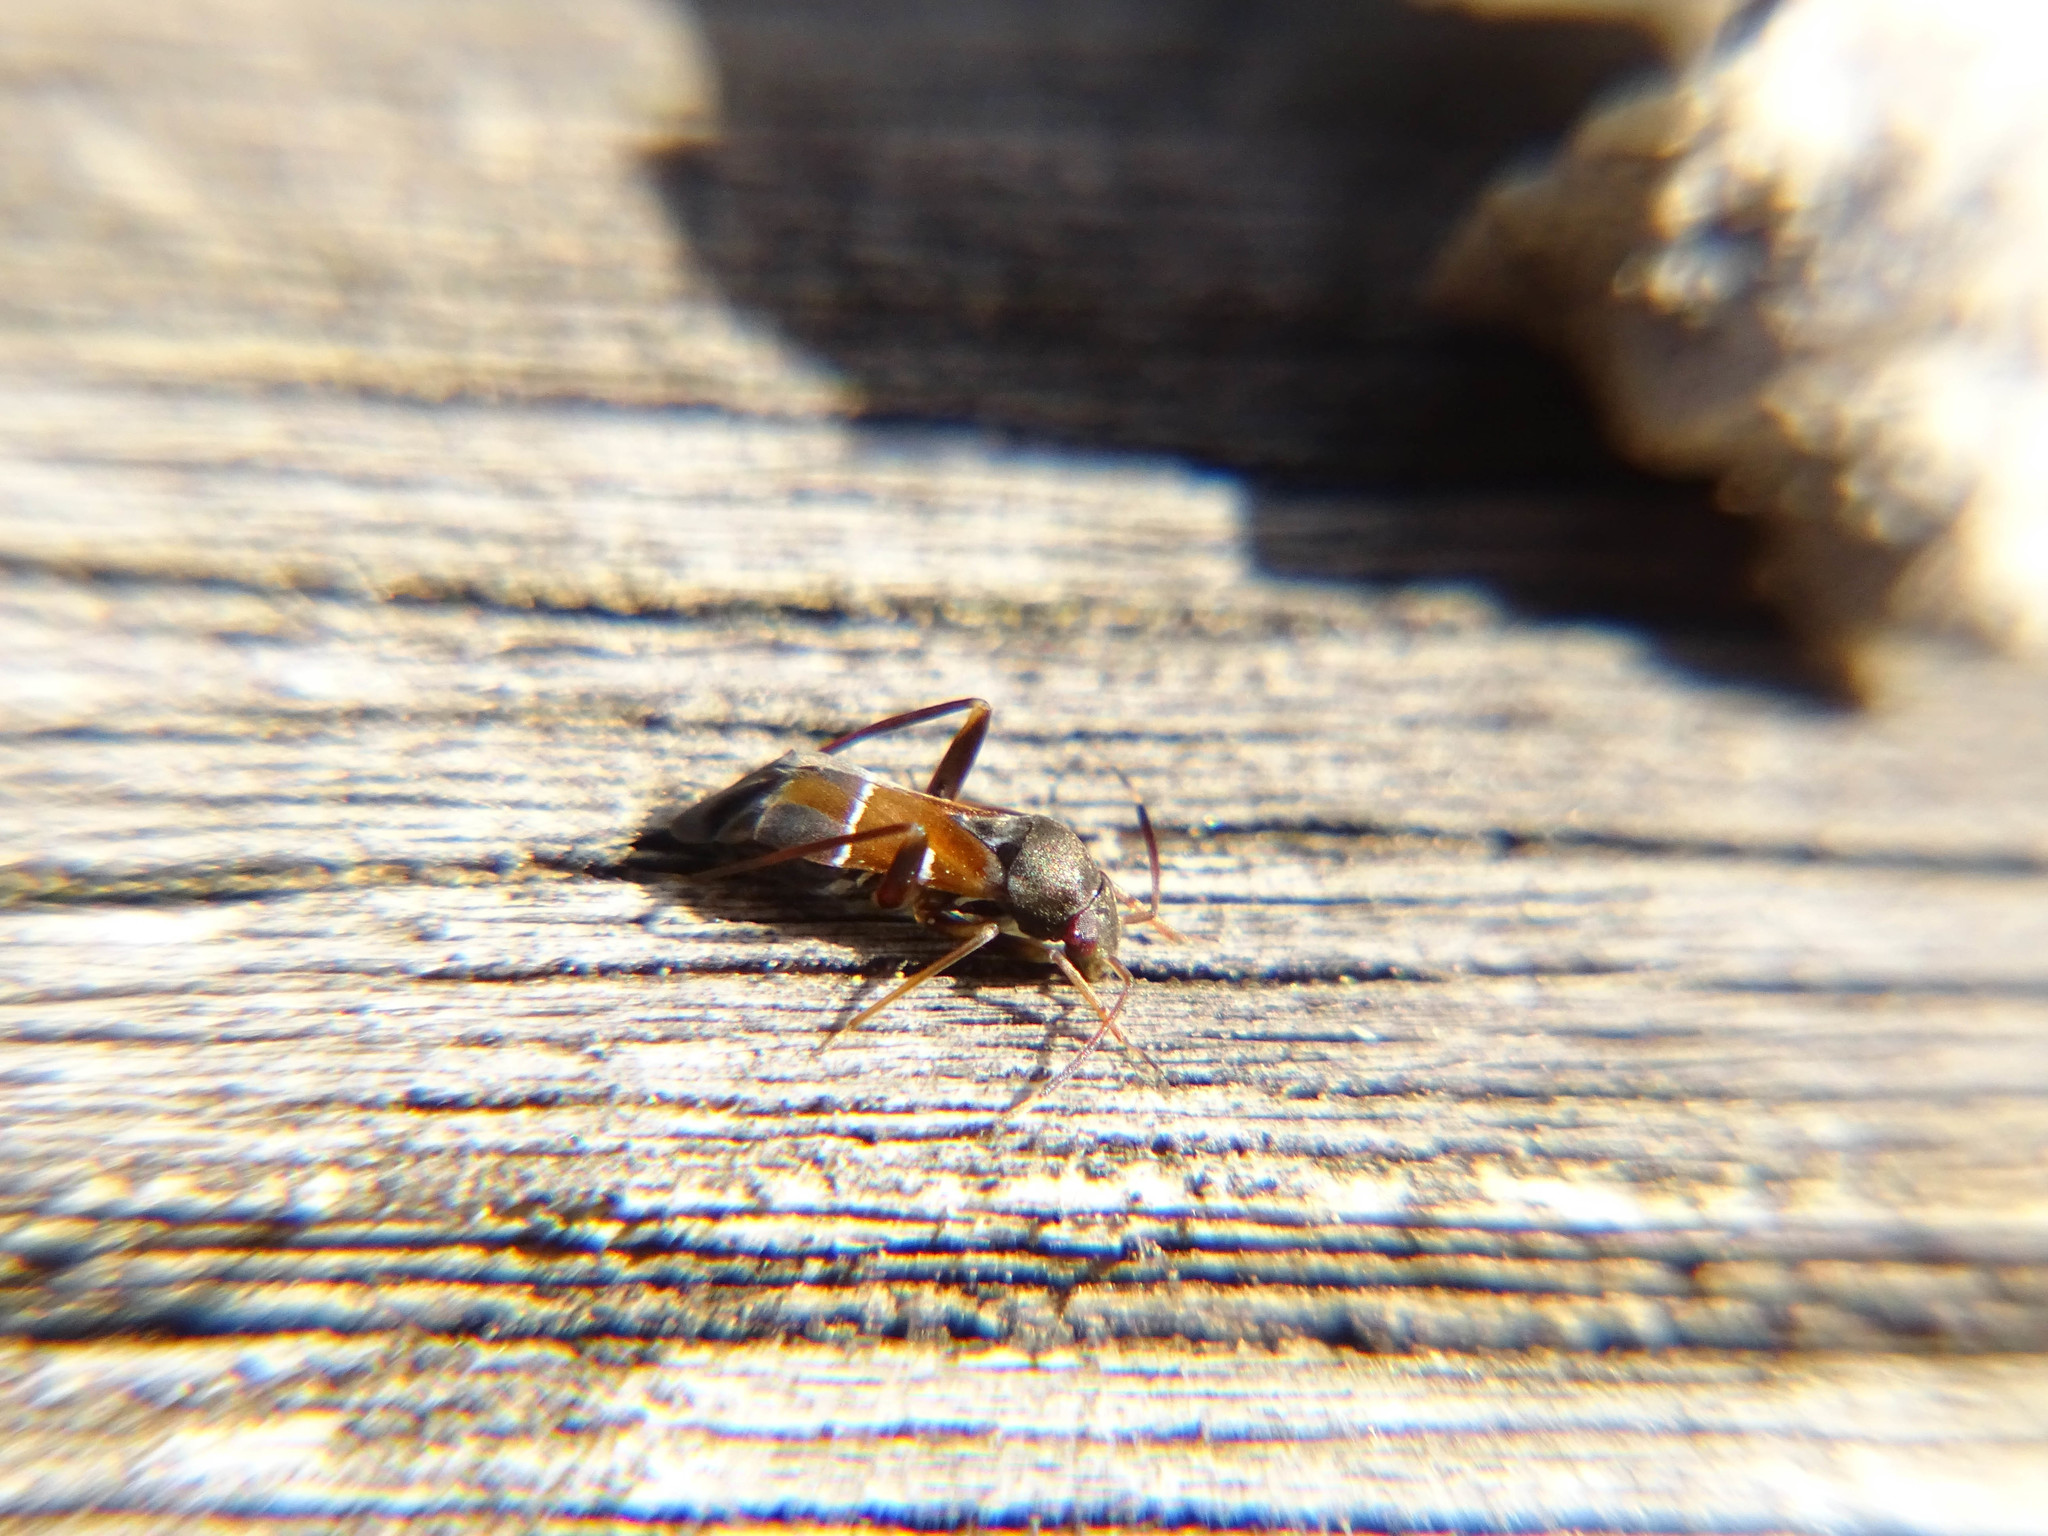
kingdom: Animalia
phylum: Arthropoda
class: Insecta
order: Hemiptera
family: Miridae
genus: Pilophorus
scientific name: Pilophorus perplexus
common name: Plant bug
